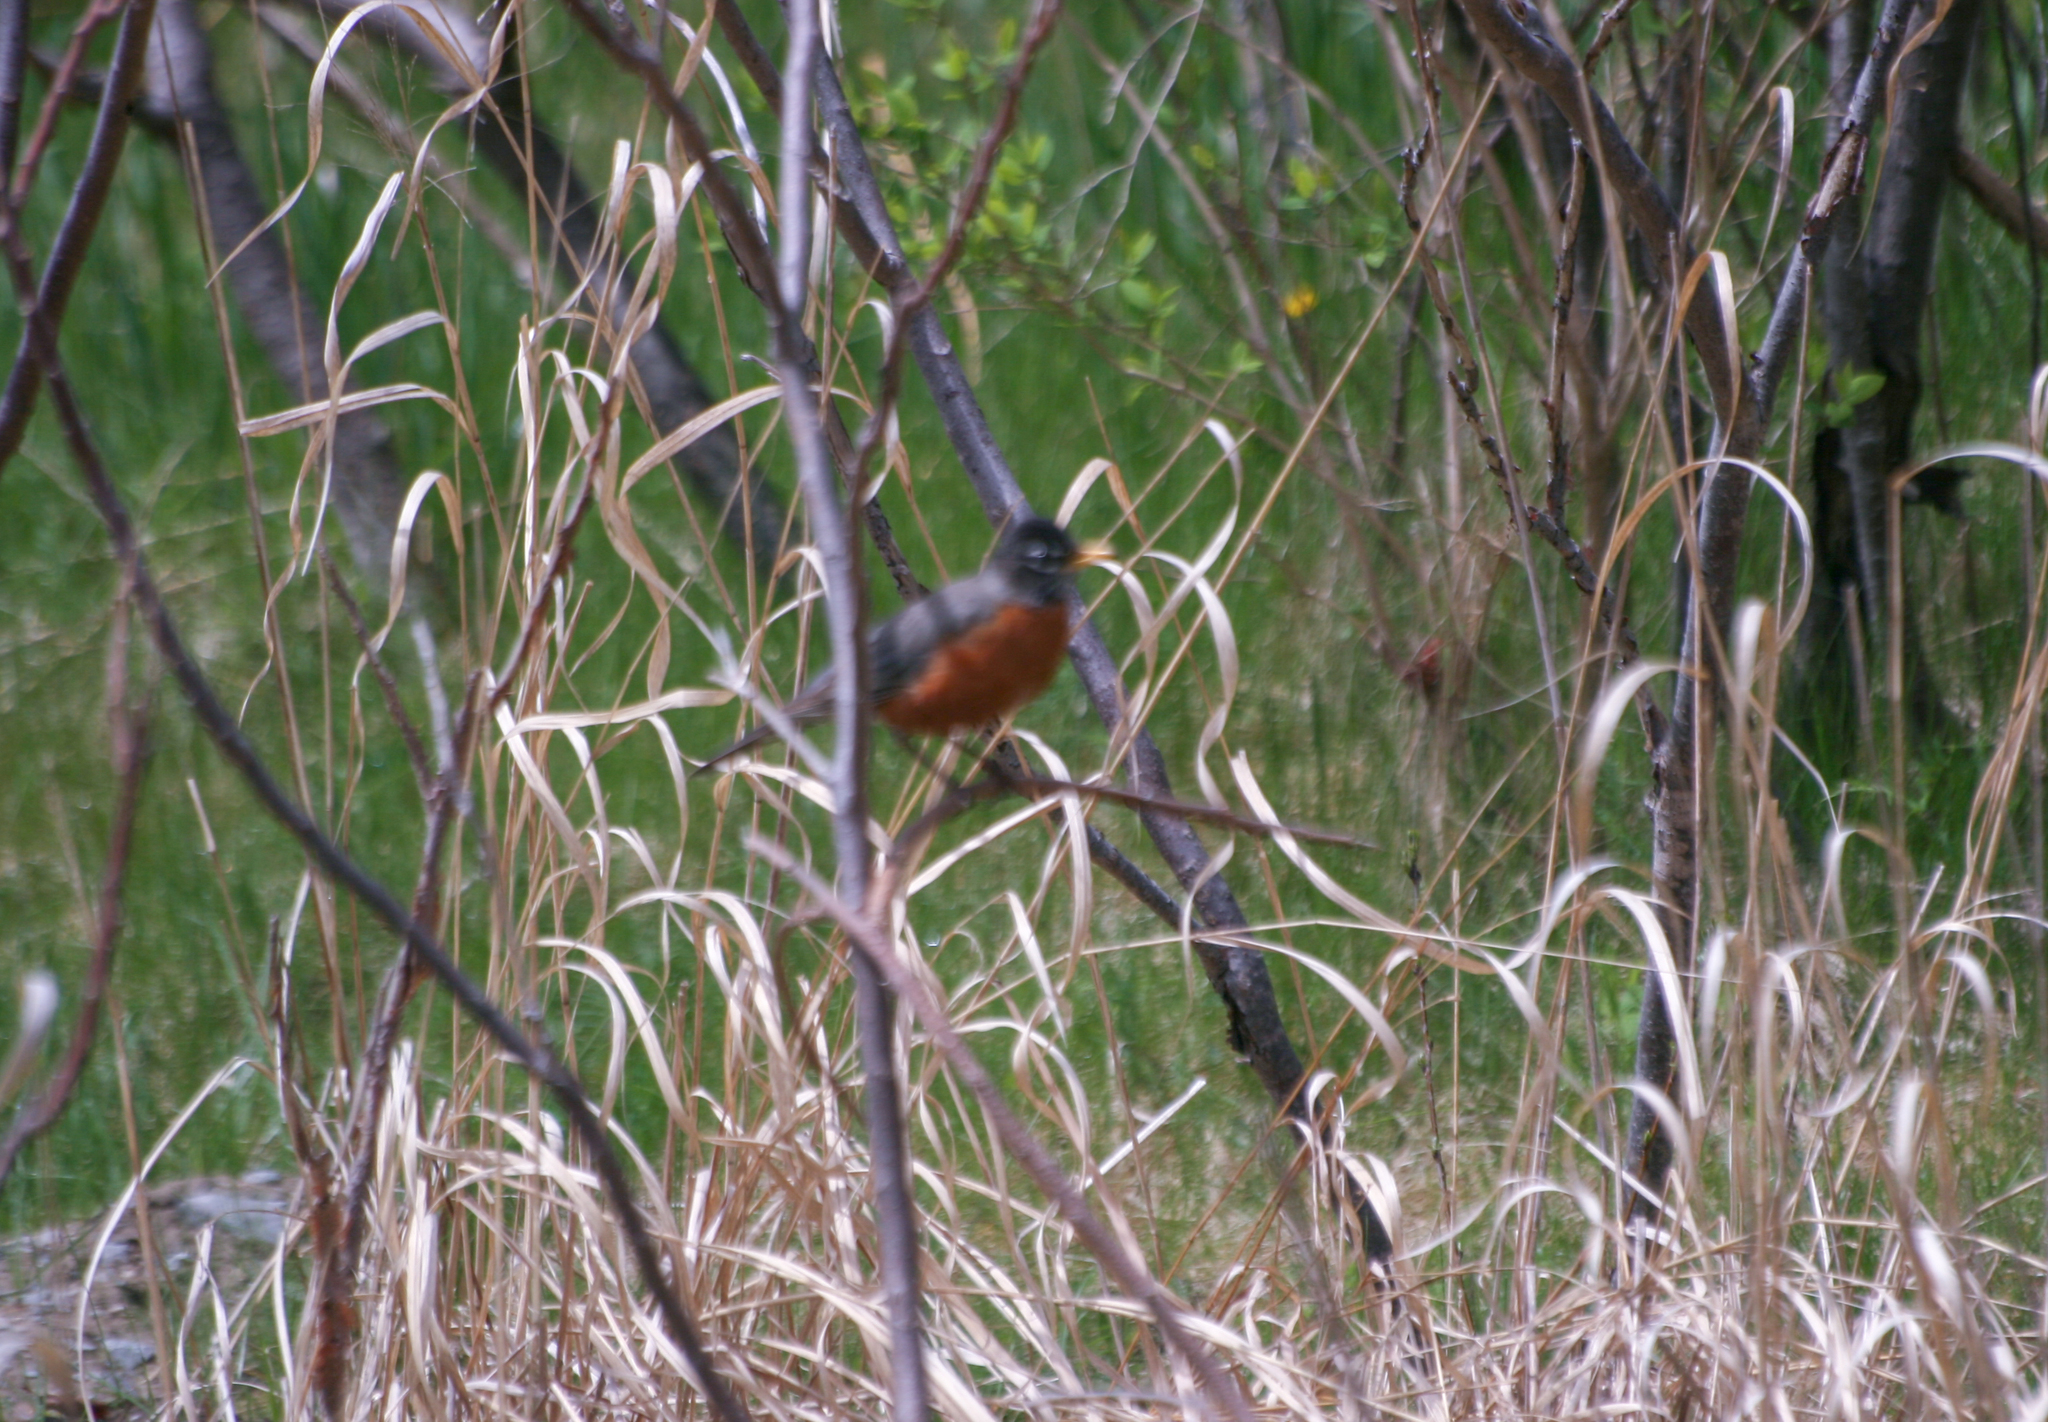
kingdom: Animalia
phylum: Chordata
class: Aves
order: Passeriformes
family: Turdidae
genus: Turdus
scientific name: Turdus migratorius
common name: American robin
